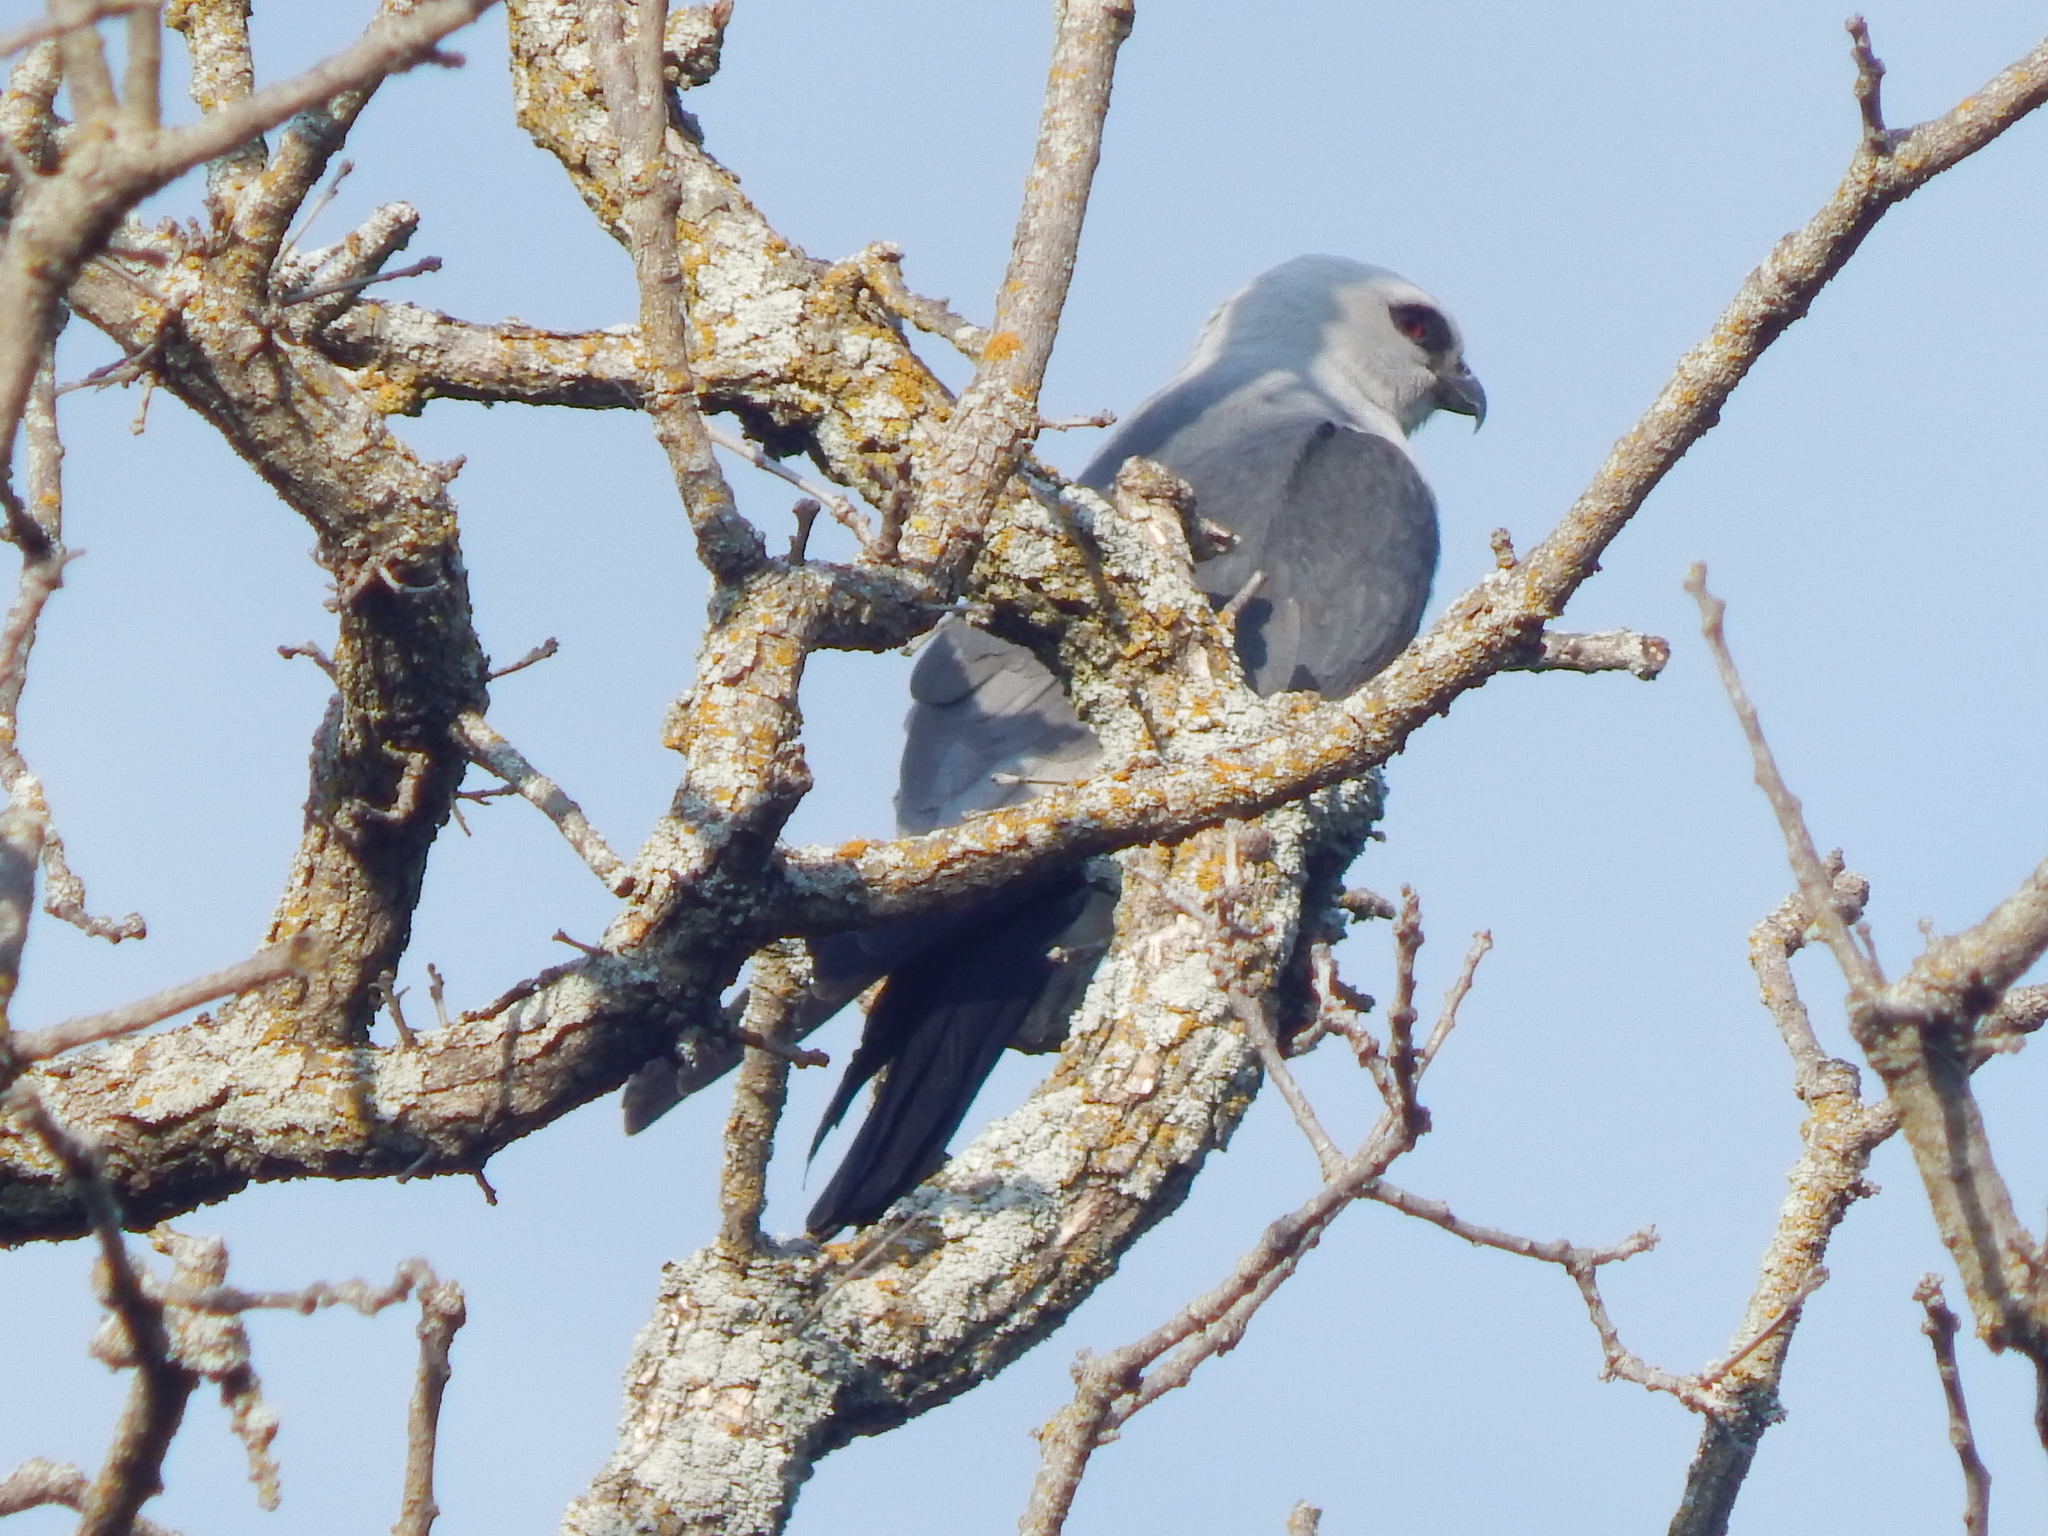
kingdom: Animalia
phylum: Chordata
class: Aves
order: Accipitriformes
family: Accipitridae
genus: Ictinia
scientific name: Ictinia mississippiensis
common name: Mississippi kite
